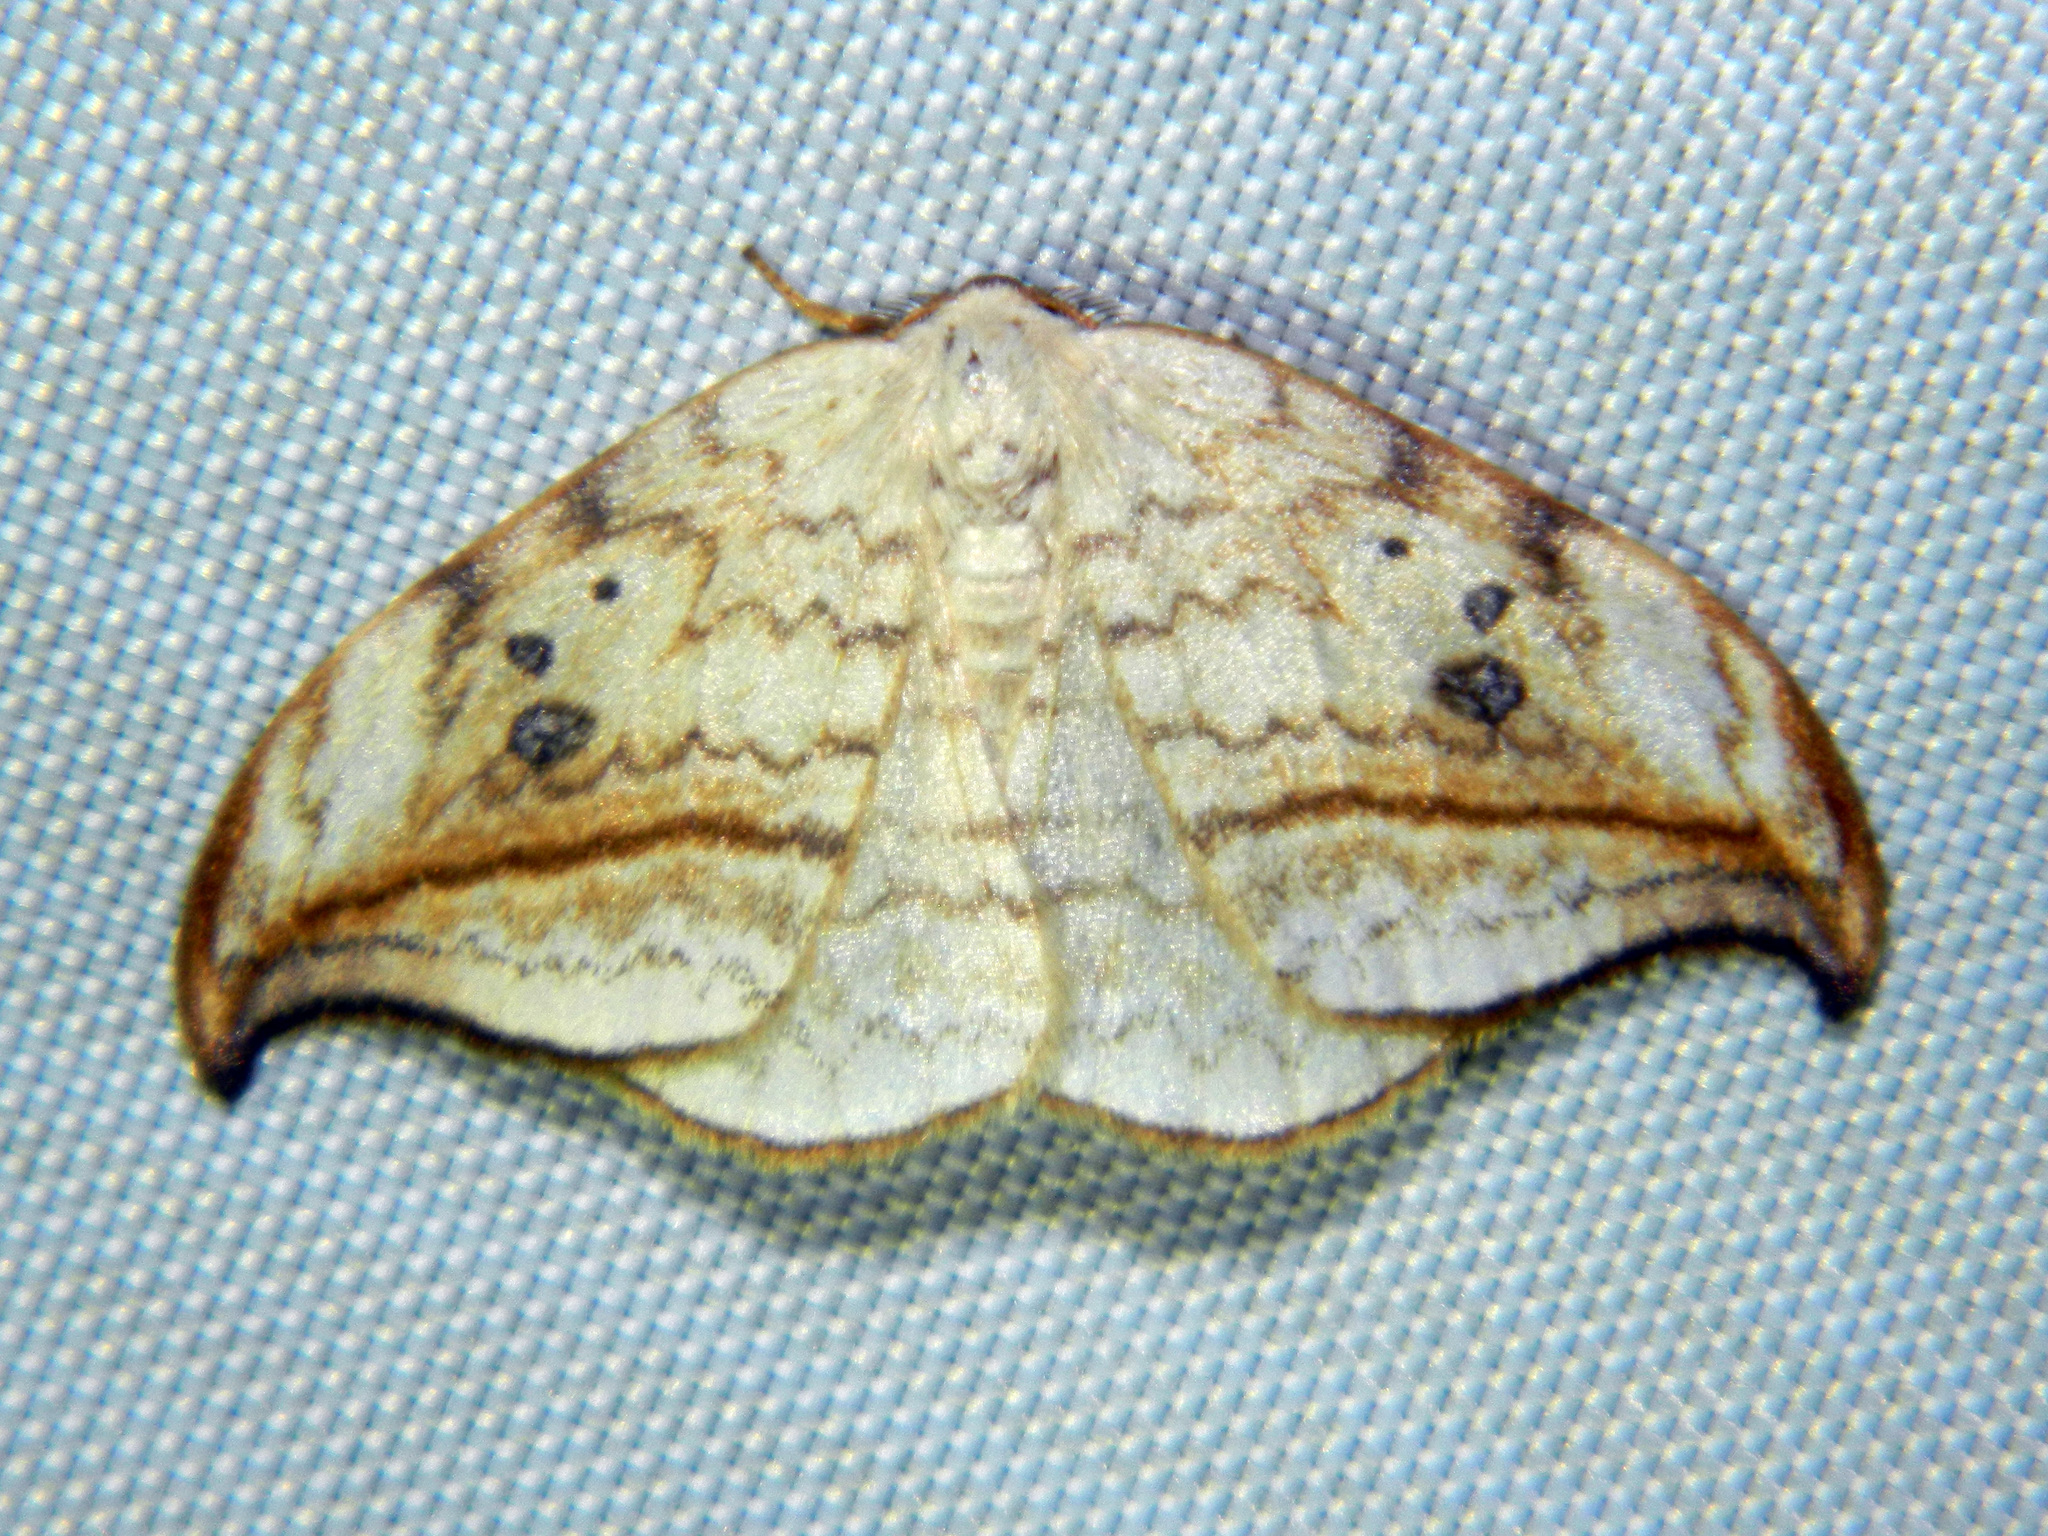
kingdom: Animalia
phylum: Arthropoda
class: Insecta
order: Lepidoptera
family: Drepanidae
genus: Drepana
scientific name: Drepana arcuata
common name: Arched hooktip moth
